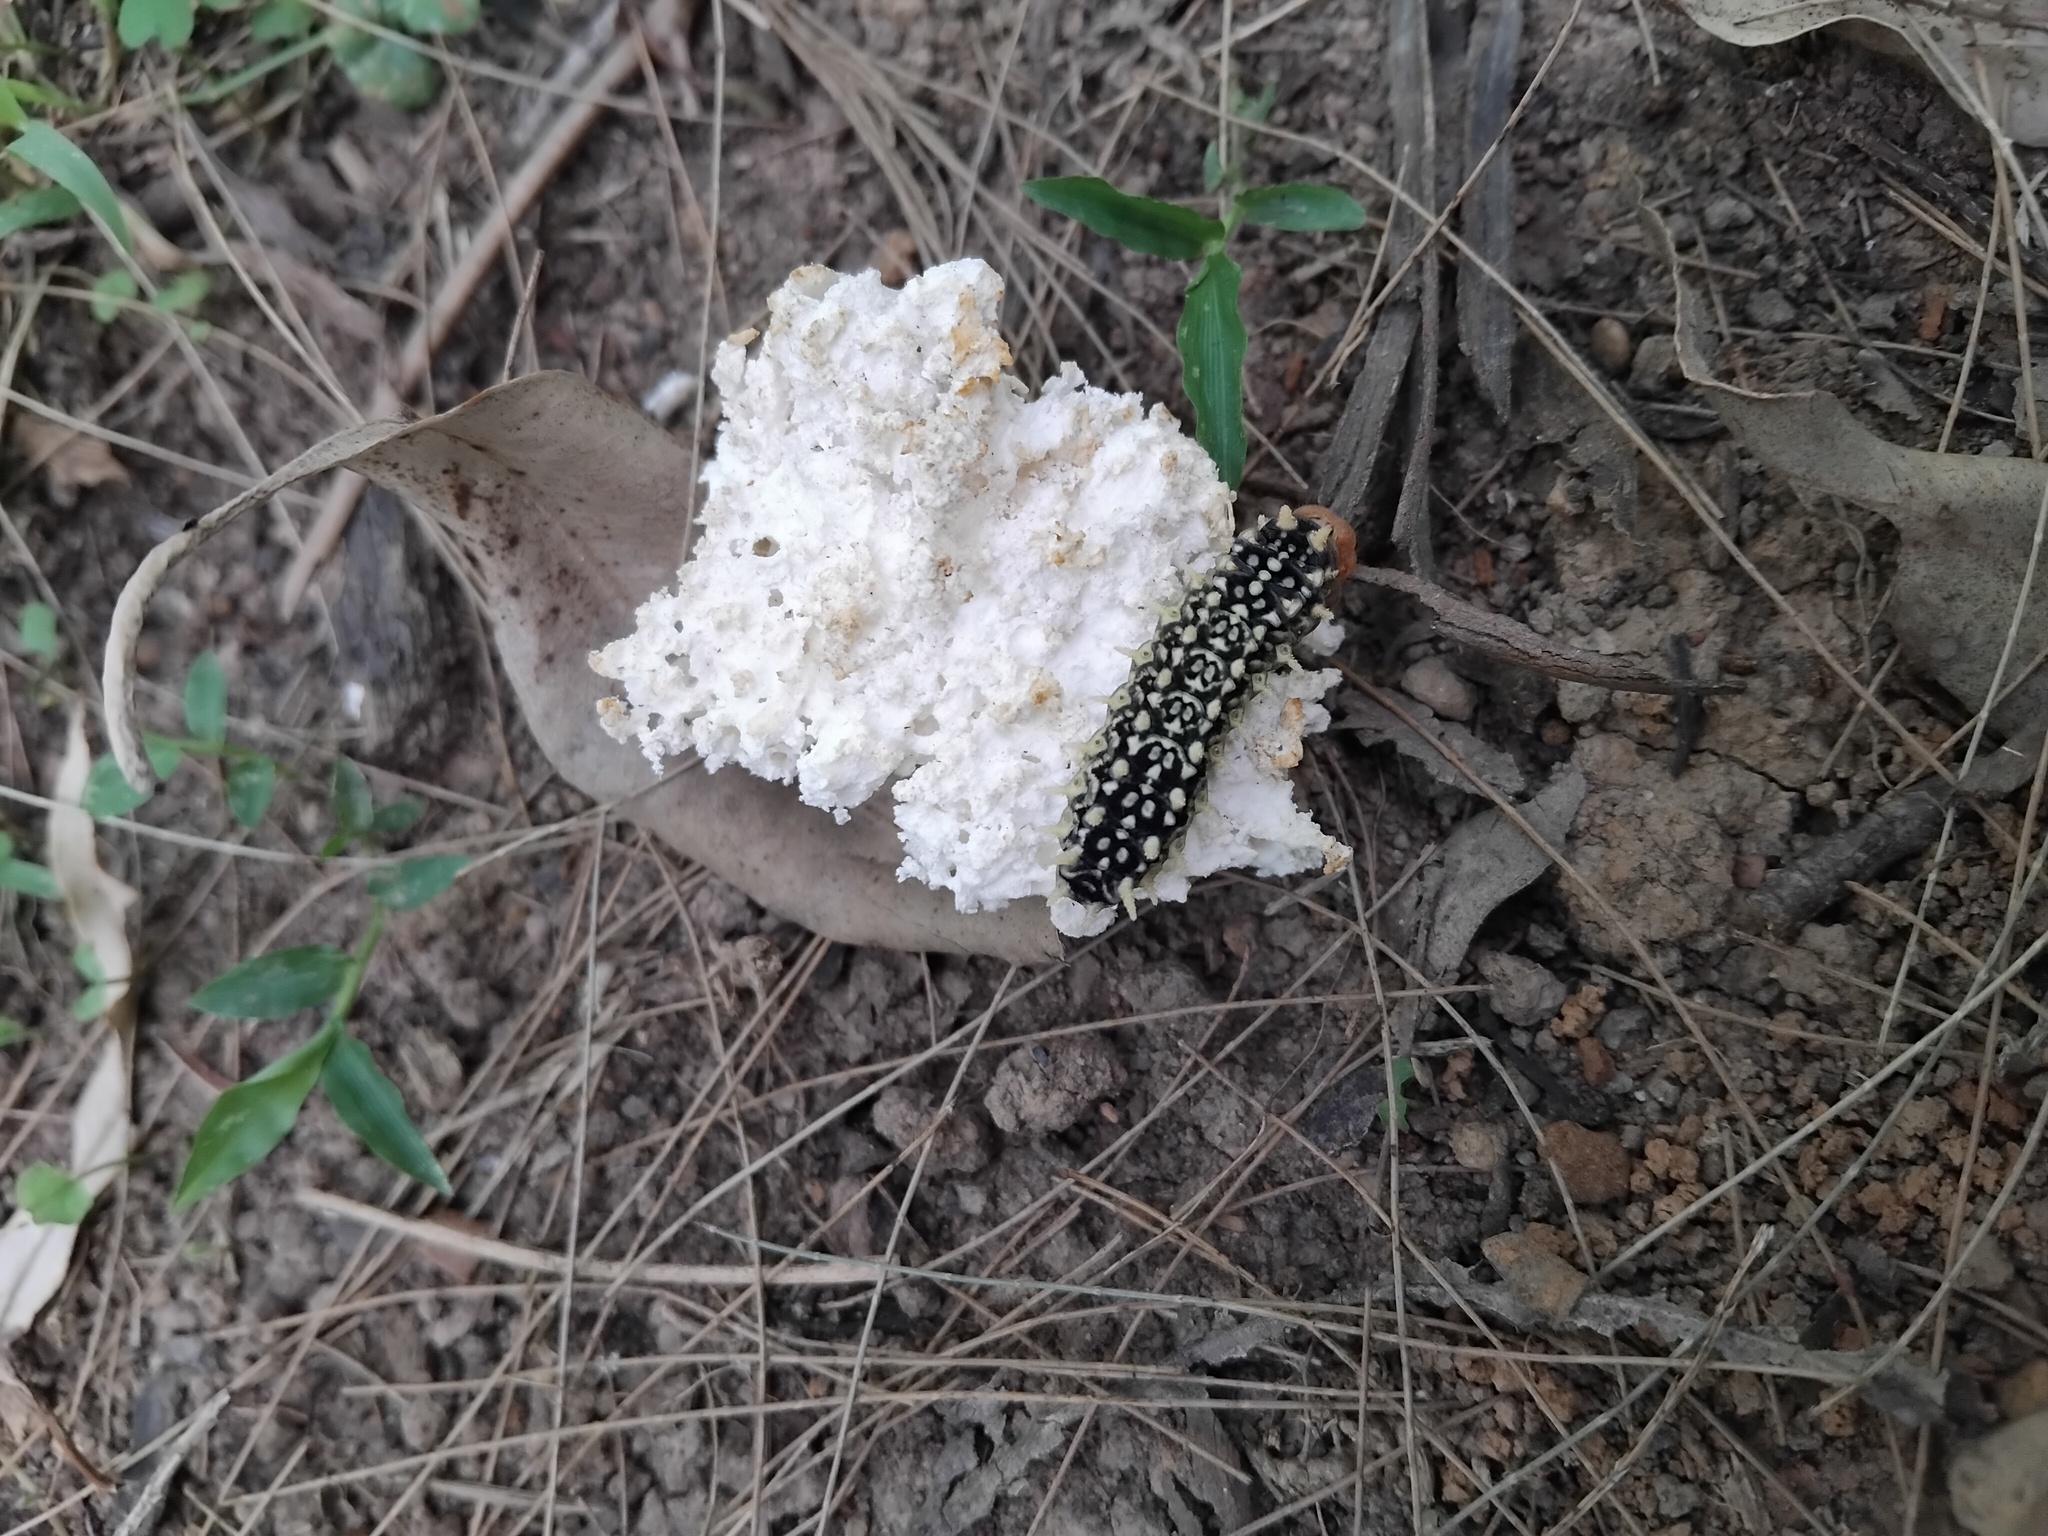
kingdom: Animalia
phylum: Arthropoda
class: Insecta
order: Lepidoptera
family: Limacodidae
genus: Doratifera
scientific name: Doratifera casta
